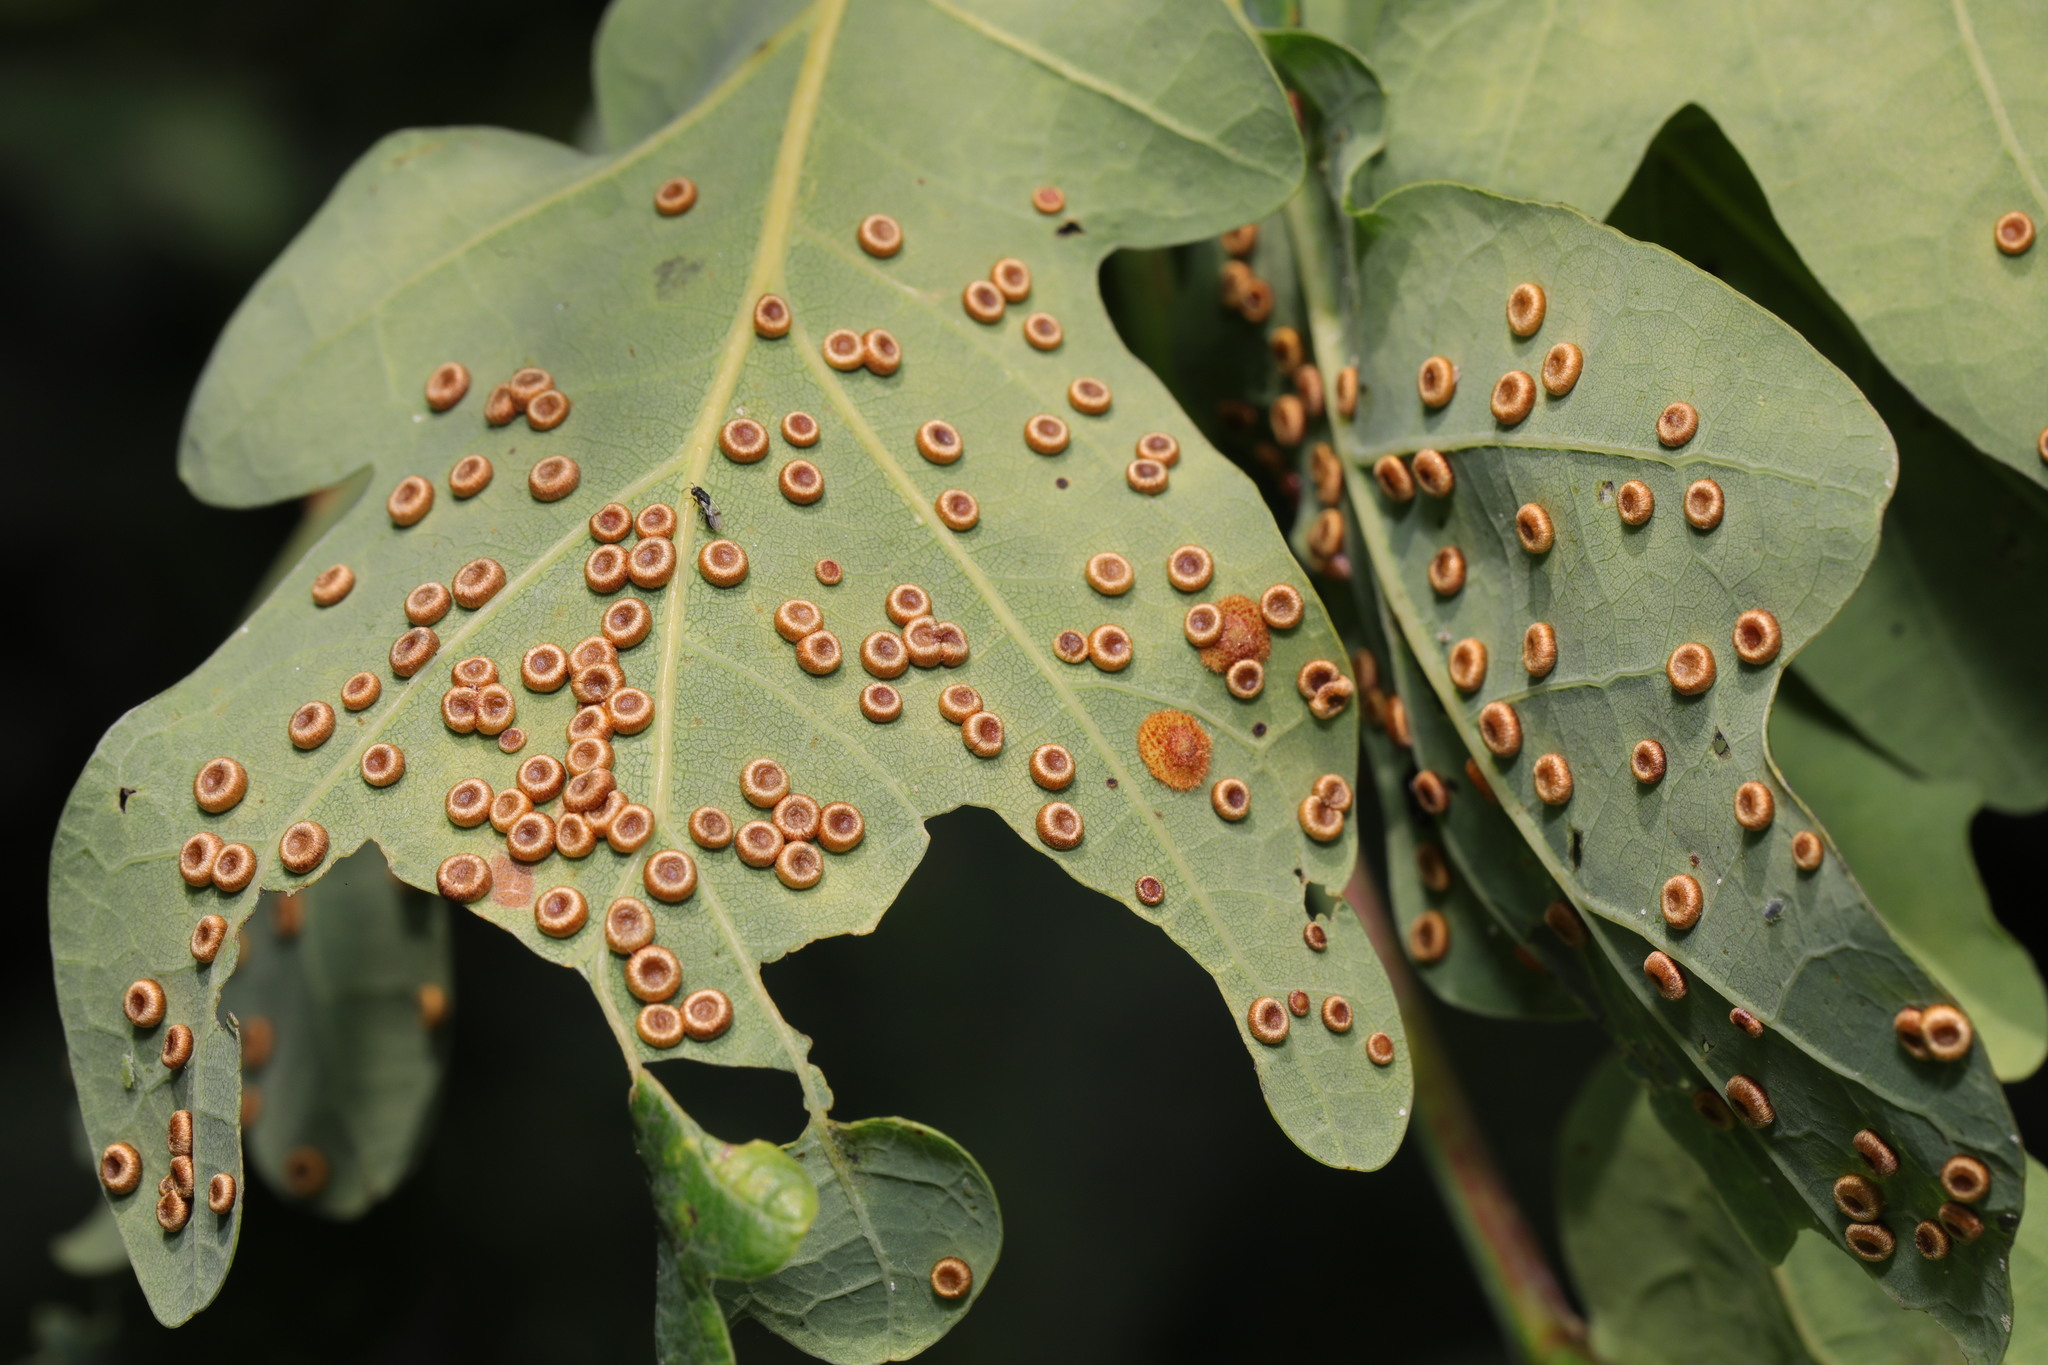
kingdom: Animalia
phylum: Arthropoda
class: Insecta
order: Hymenoptera
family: Cynipidae
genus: Neuroterus
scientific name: Neuroterus numismalis
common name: Silk-button spangle gall
